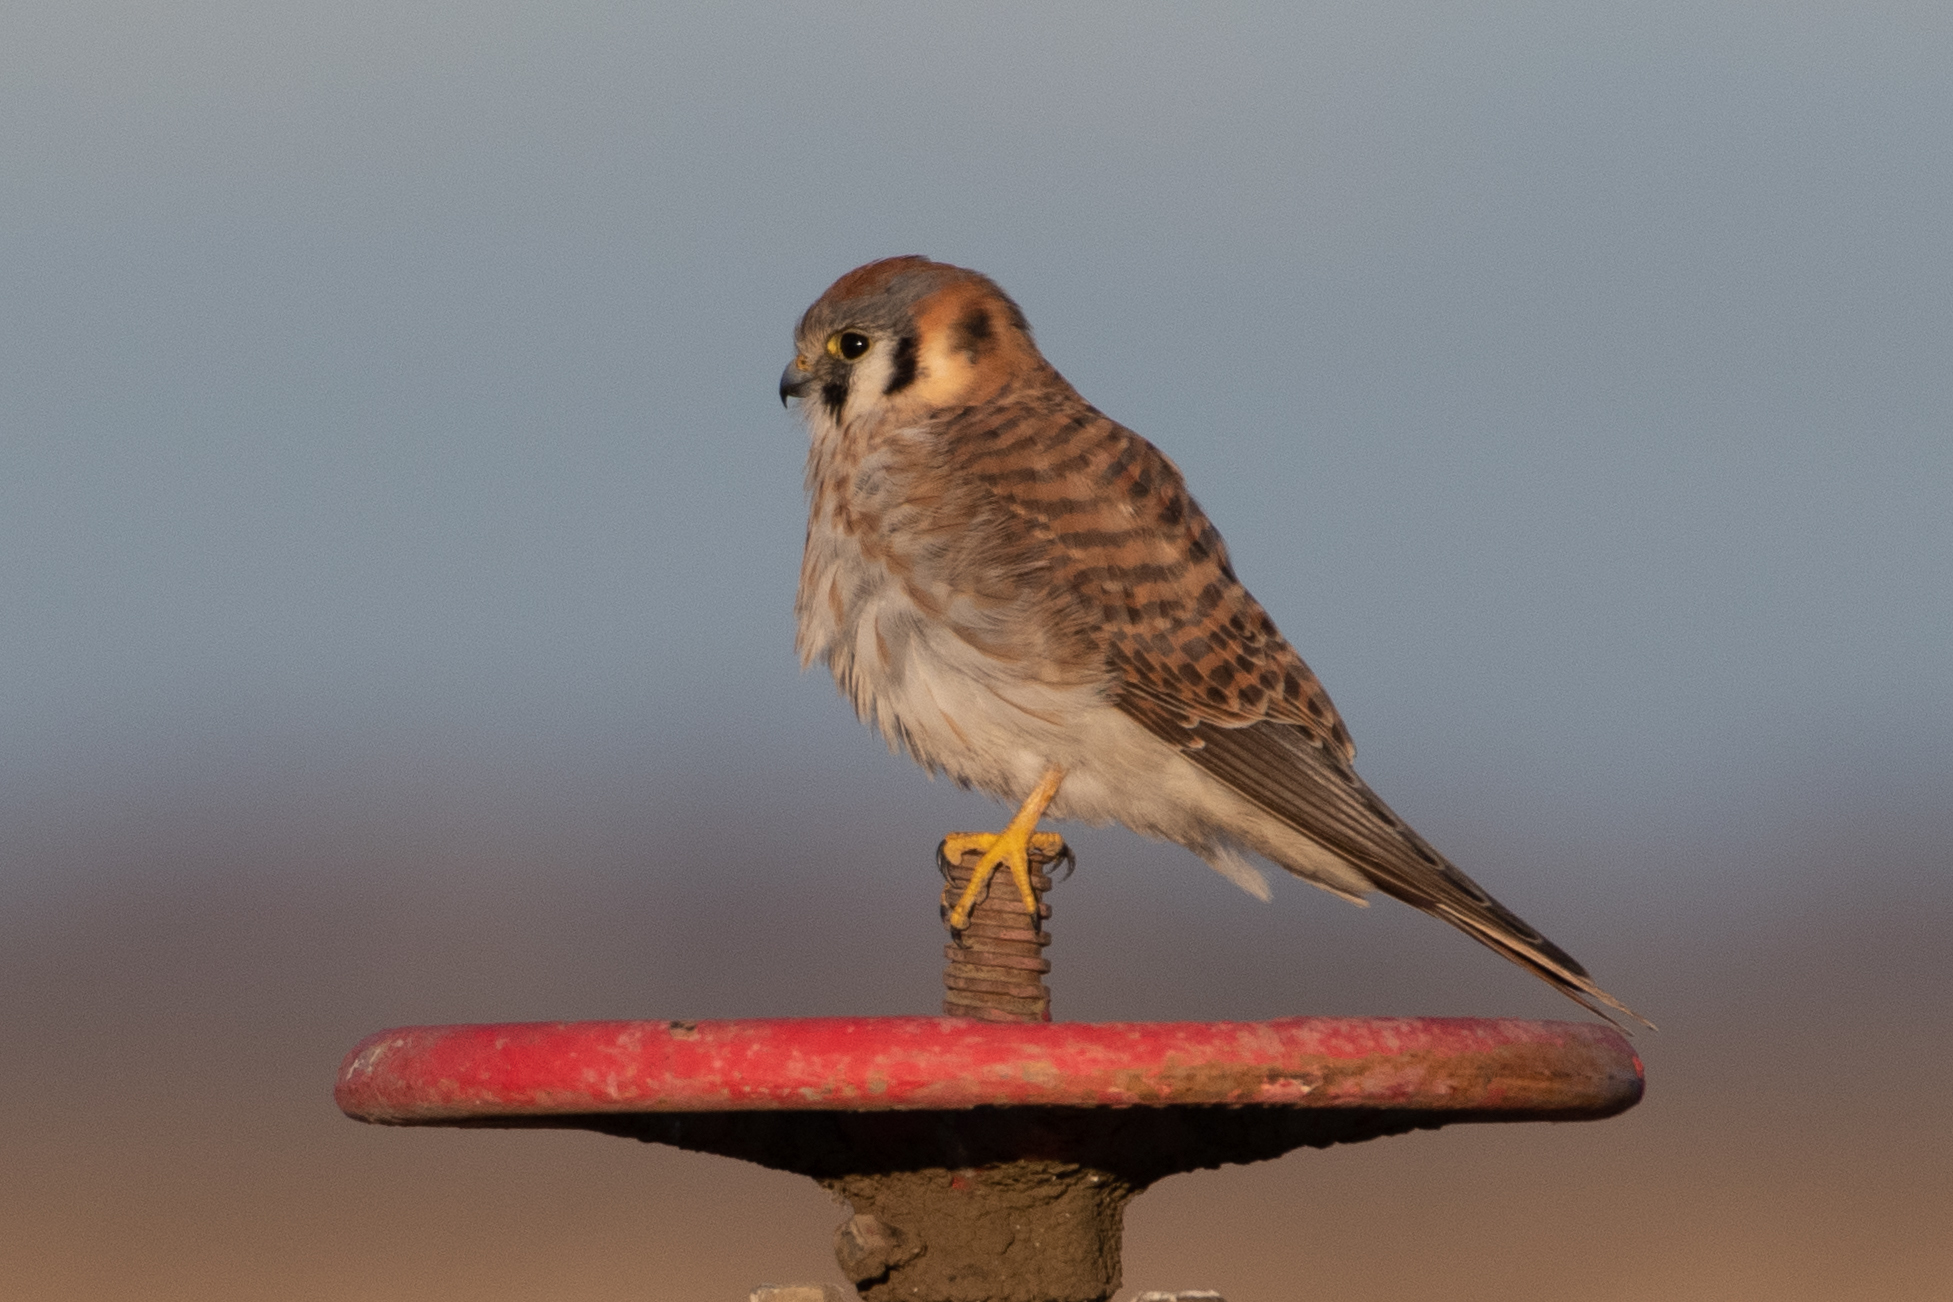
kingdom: Animalia
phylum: Chordata
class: Aves
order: Falconiformes
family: Falconidae
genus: Falco
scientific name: Falco sparverius
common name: American kestrel
